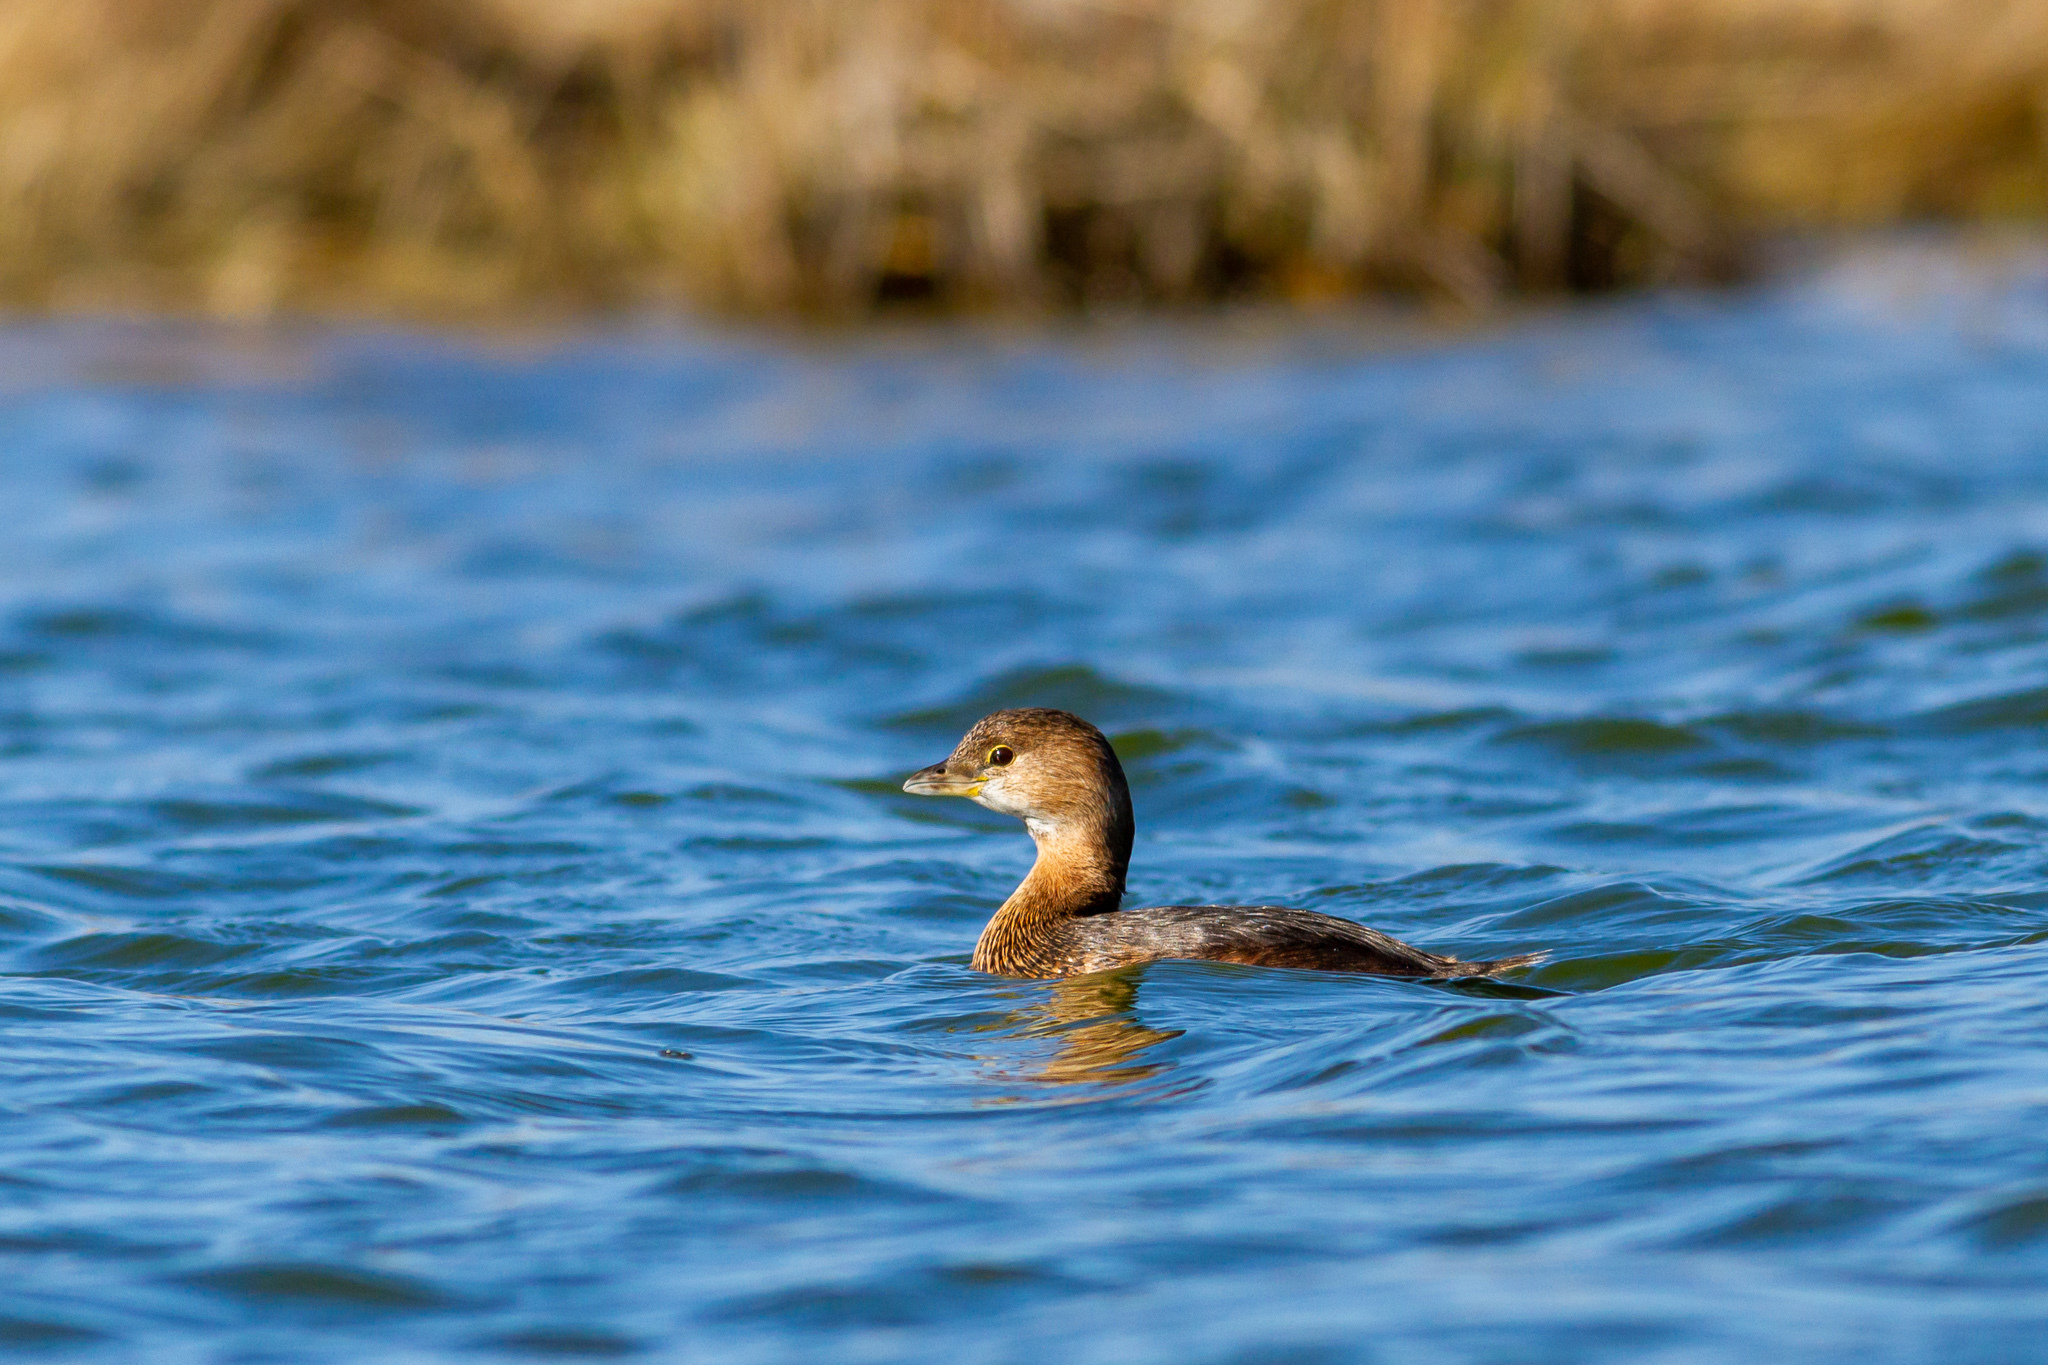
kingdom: Animalia
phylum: Chordata
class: Aves
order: Podicipediformes
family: Podicipedidae
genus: Podilymbus
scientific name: Podilymbus podiceps
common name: Pied-billed grebe
